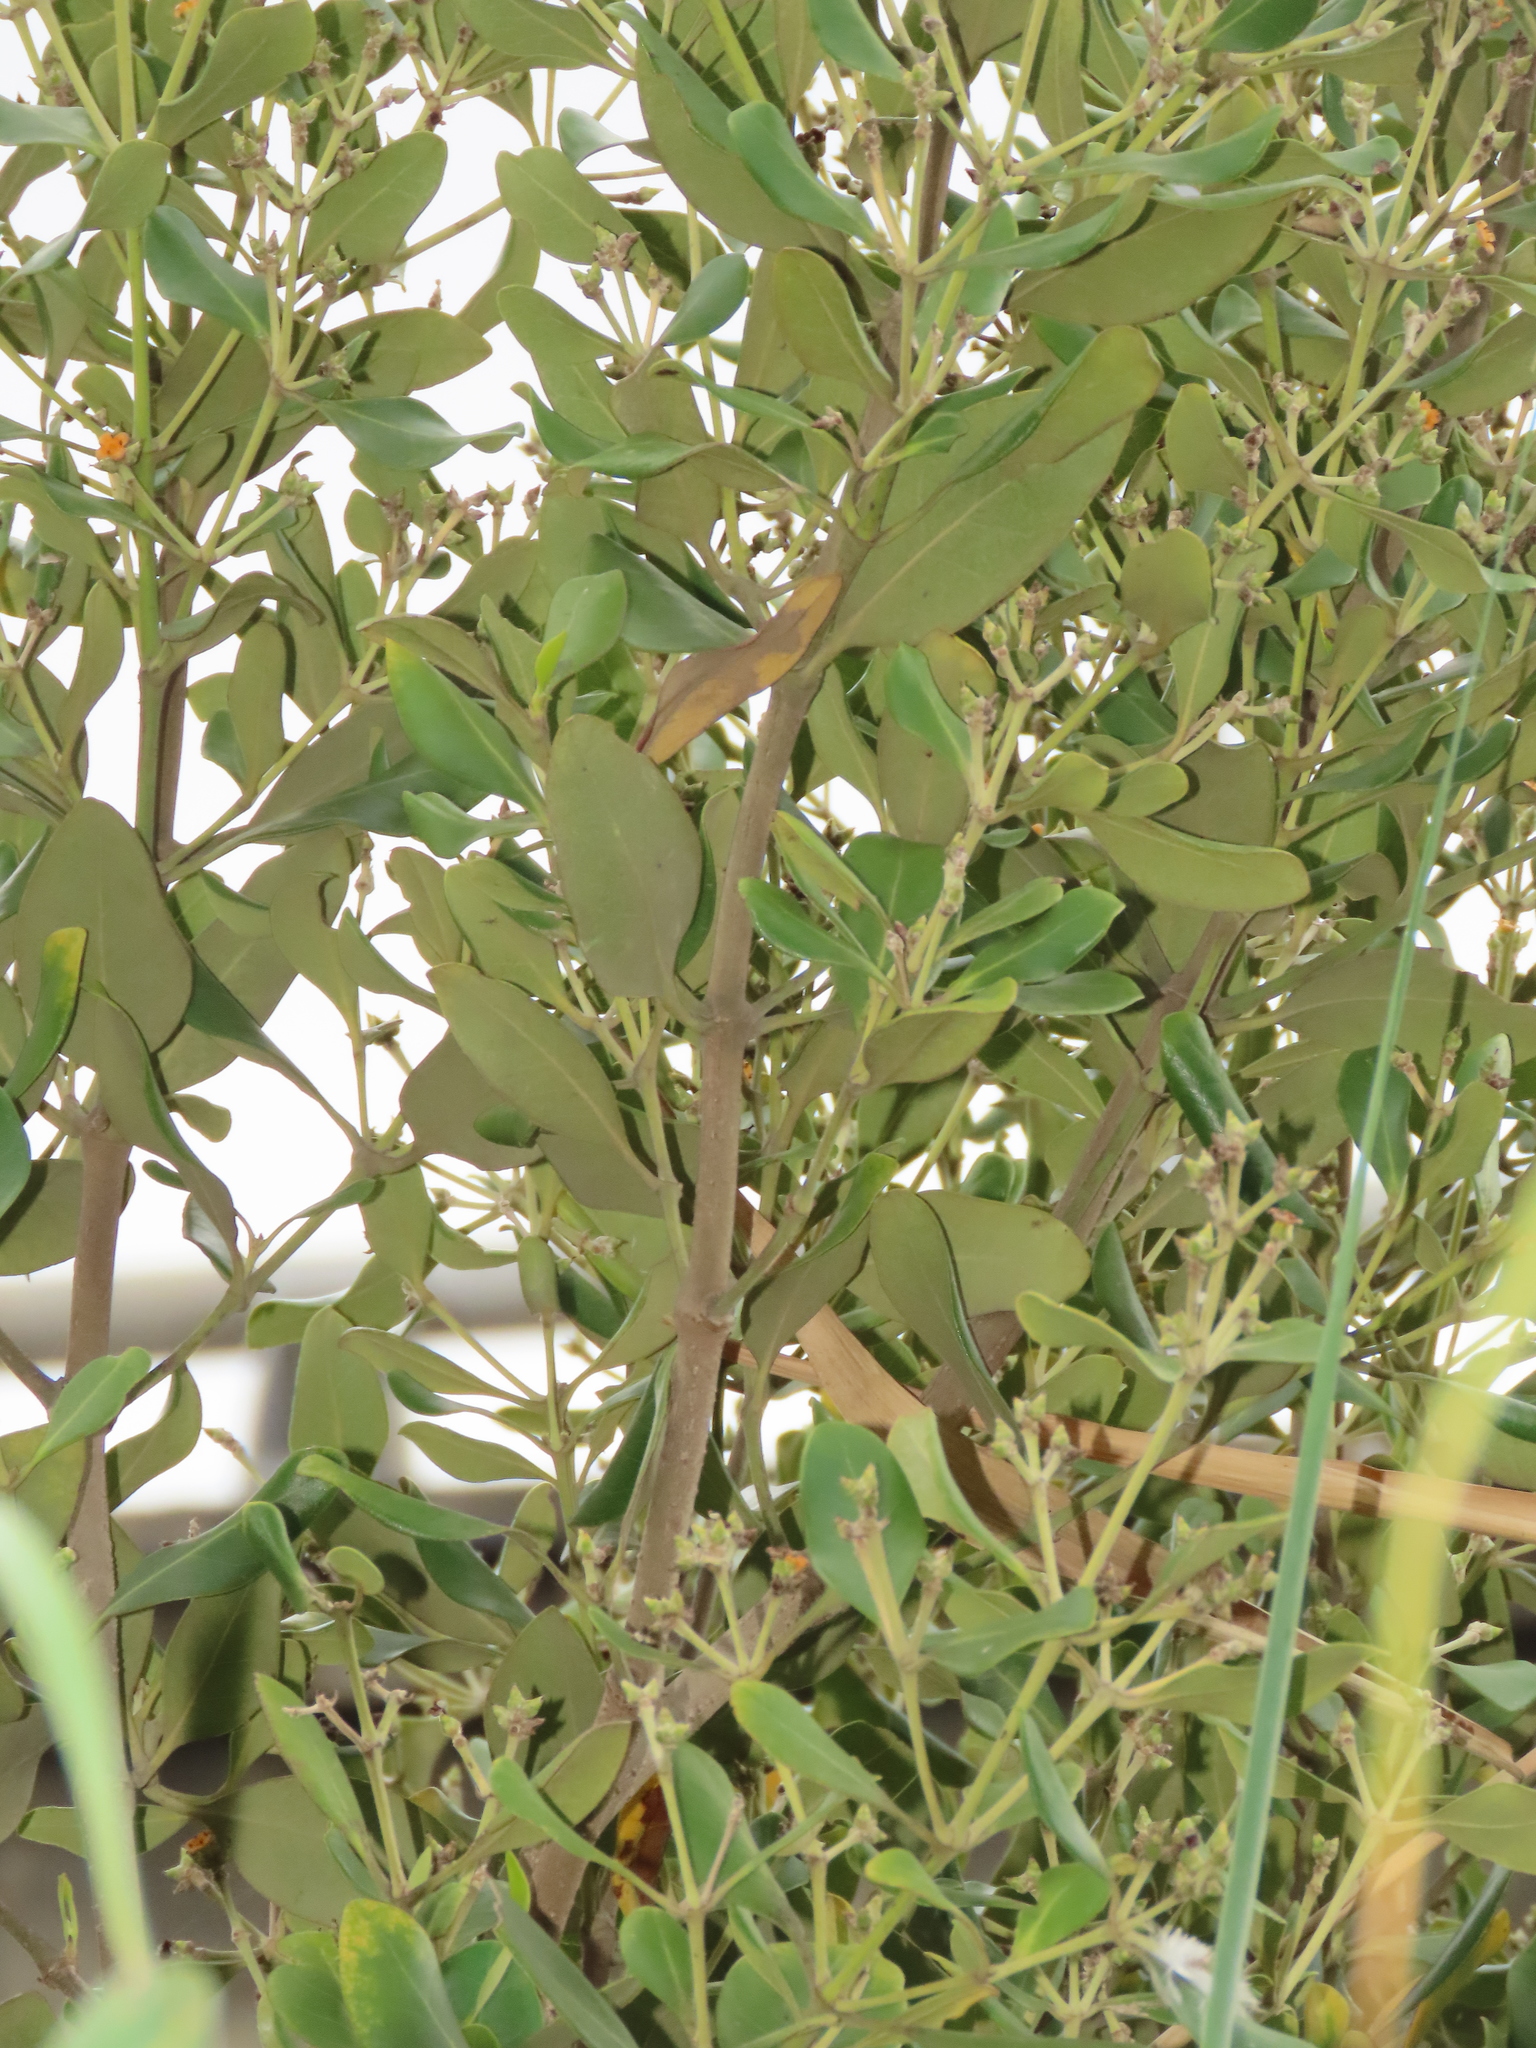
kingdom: Plantae
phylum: Tracheophyta
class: Magnoliopsida
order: Lamiales
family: Acanthaceae
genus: Avicennia
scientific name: Avicennia marina
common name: Gray mangrove
